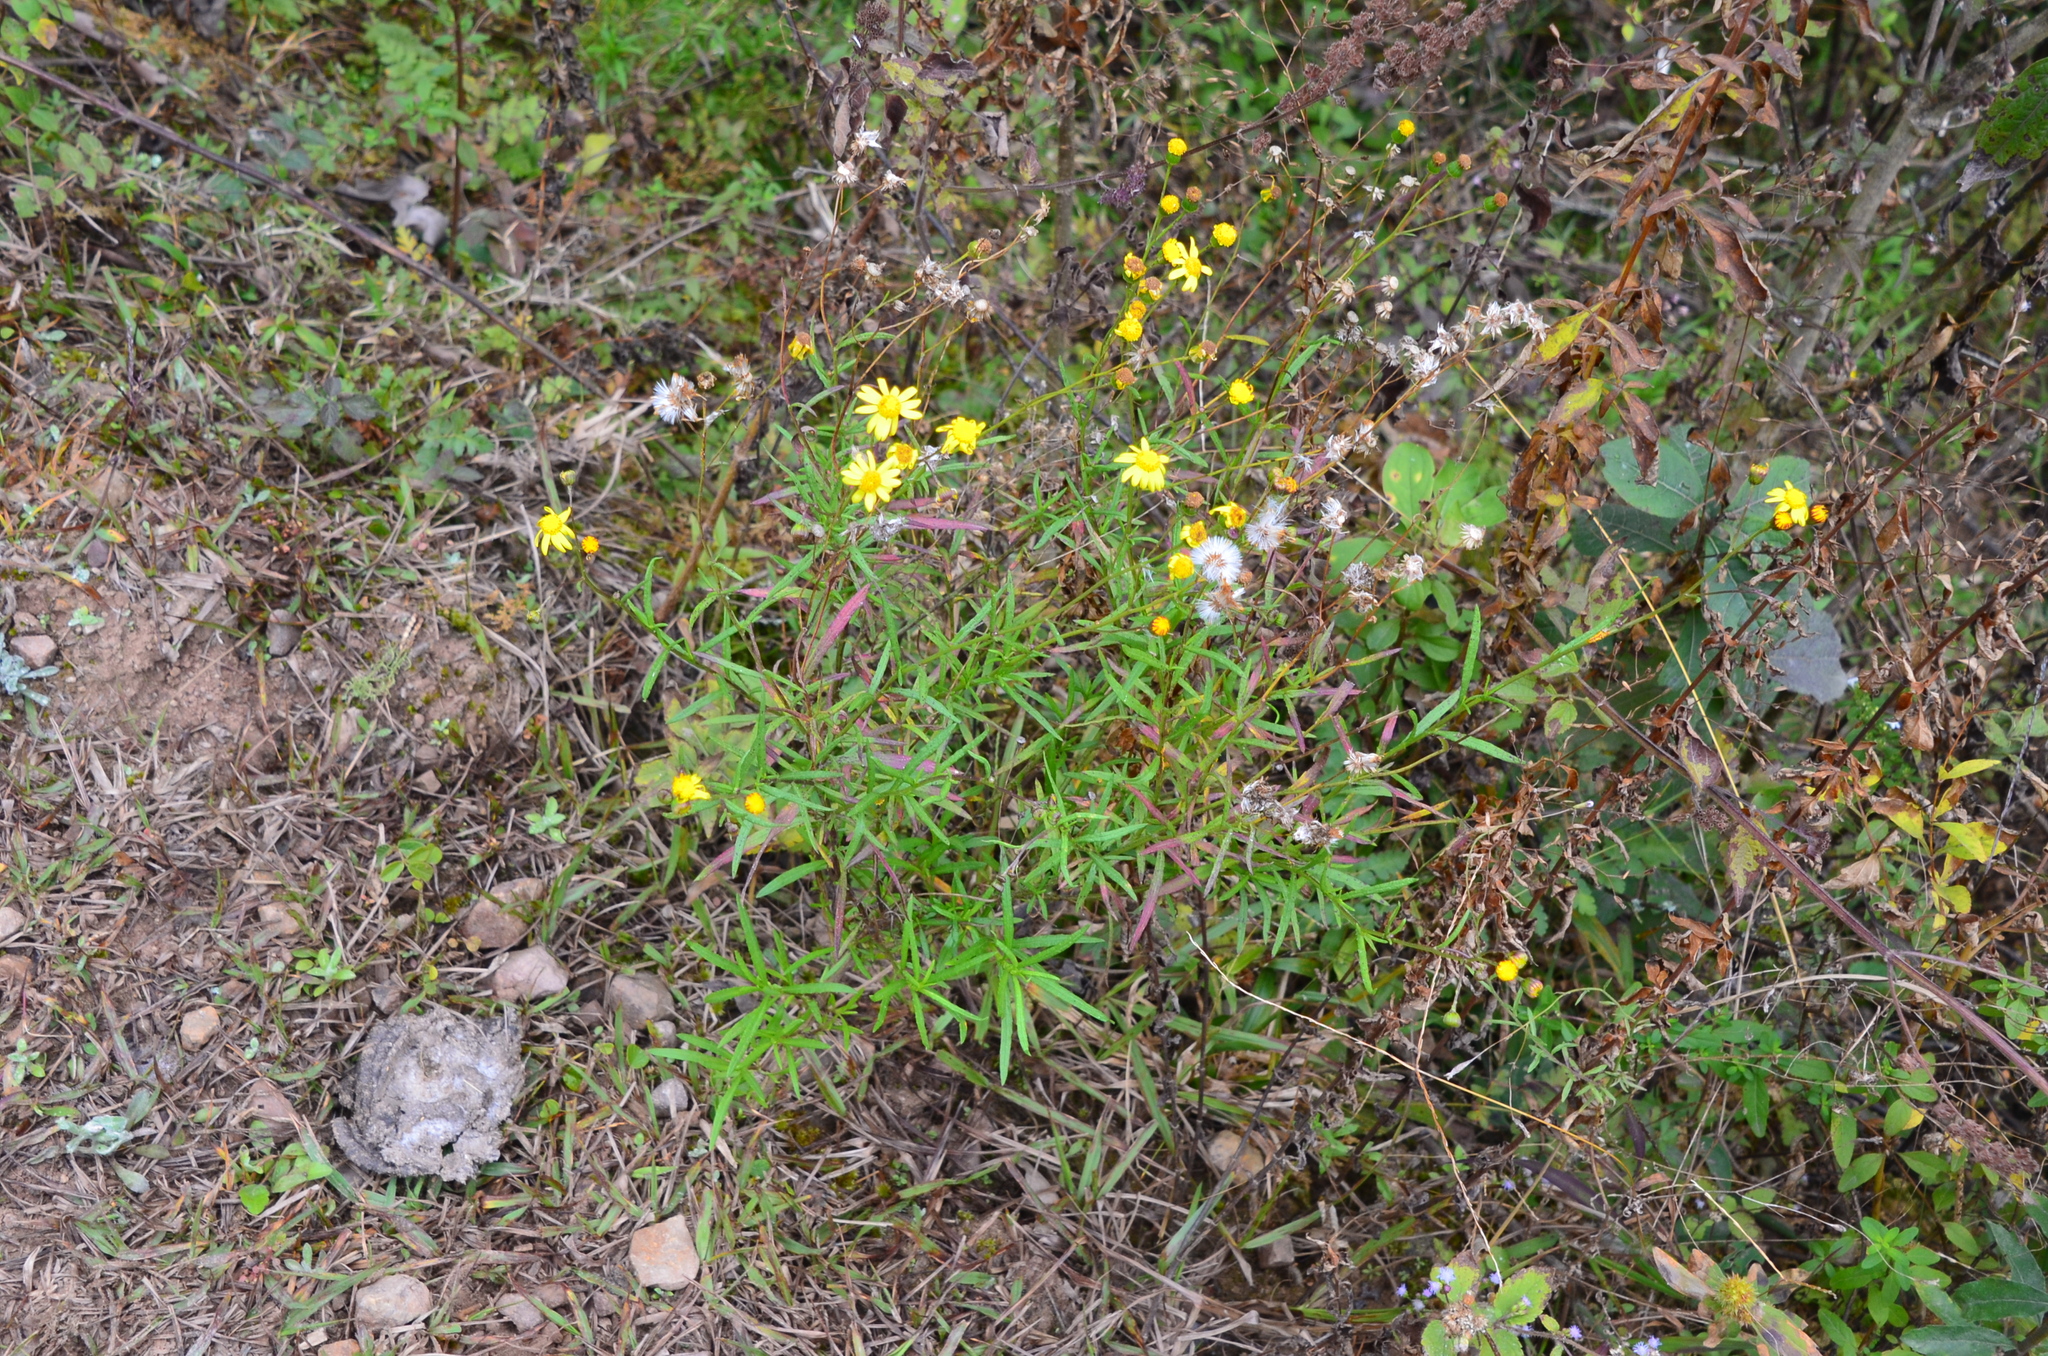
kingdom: Plantae
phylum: Tracheophyta
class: Magnoliopsida
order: Asterales
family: Asteraceae
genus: Senecio
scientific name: Senecio madagascariensis
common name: Madagascar ragwort
